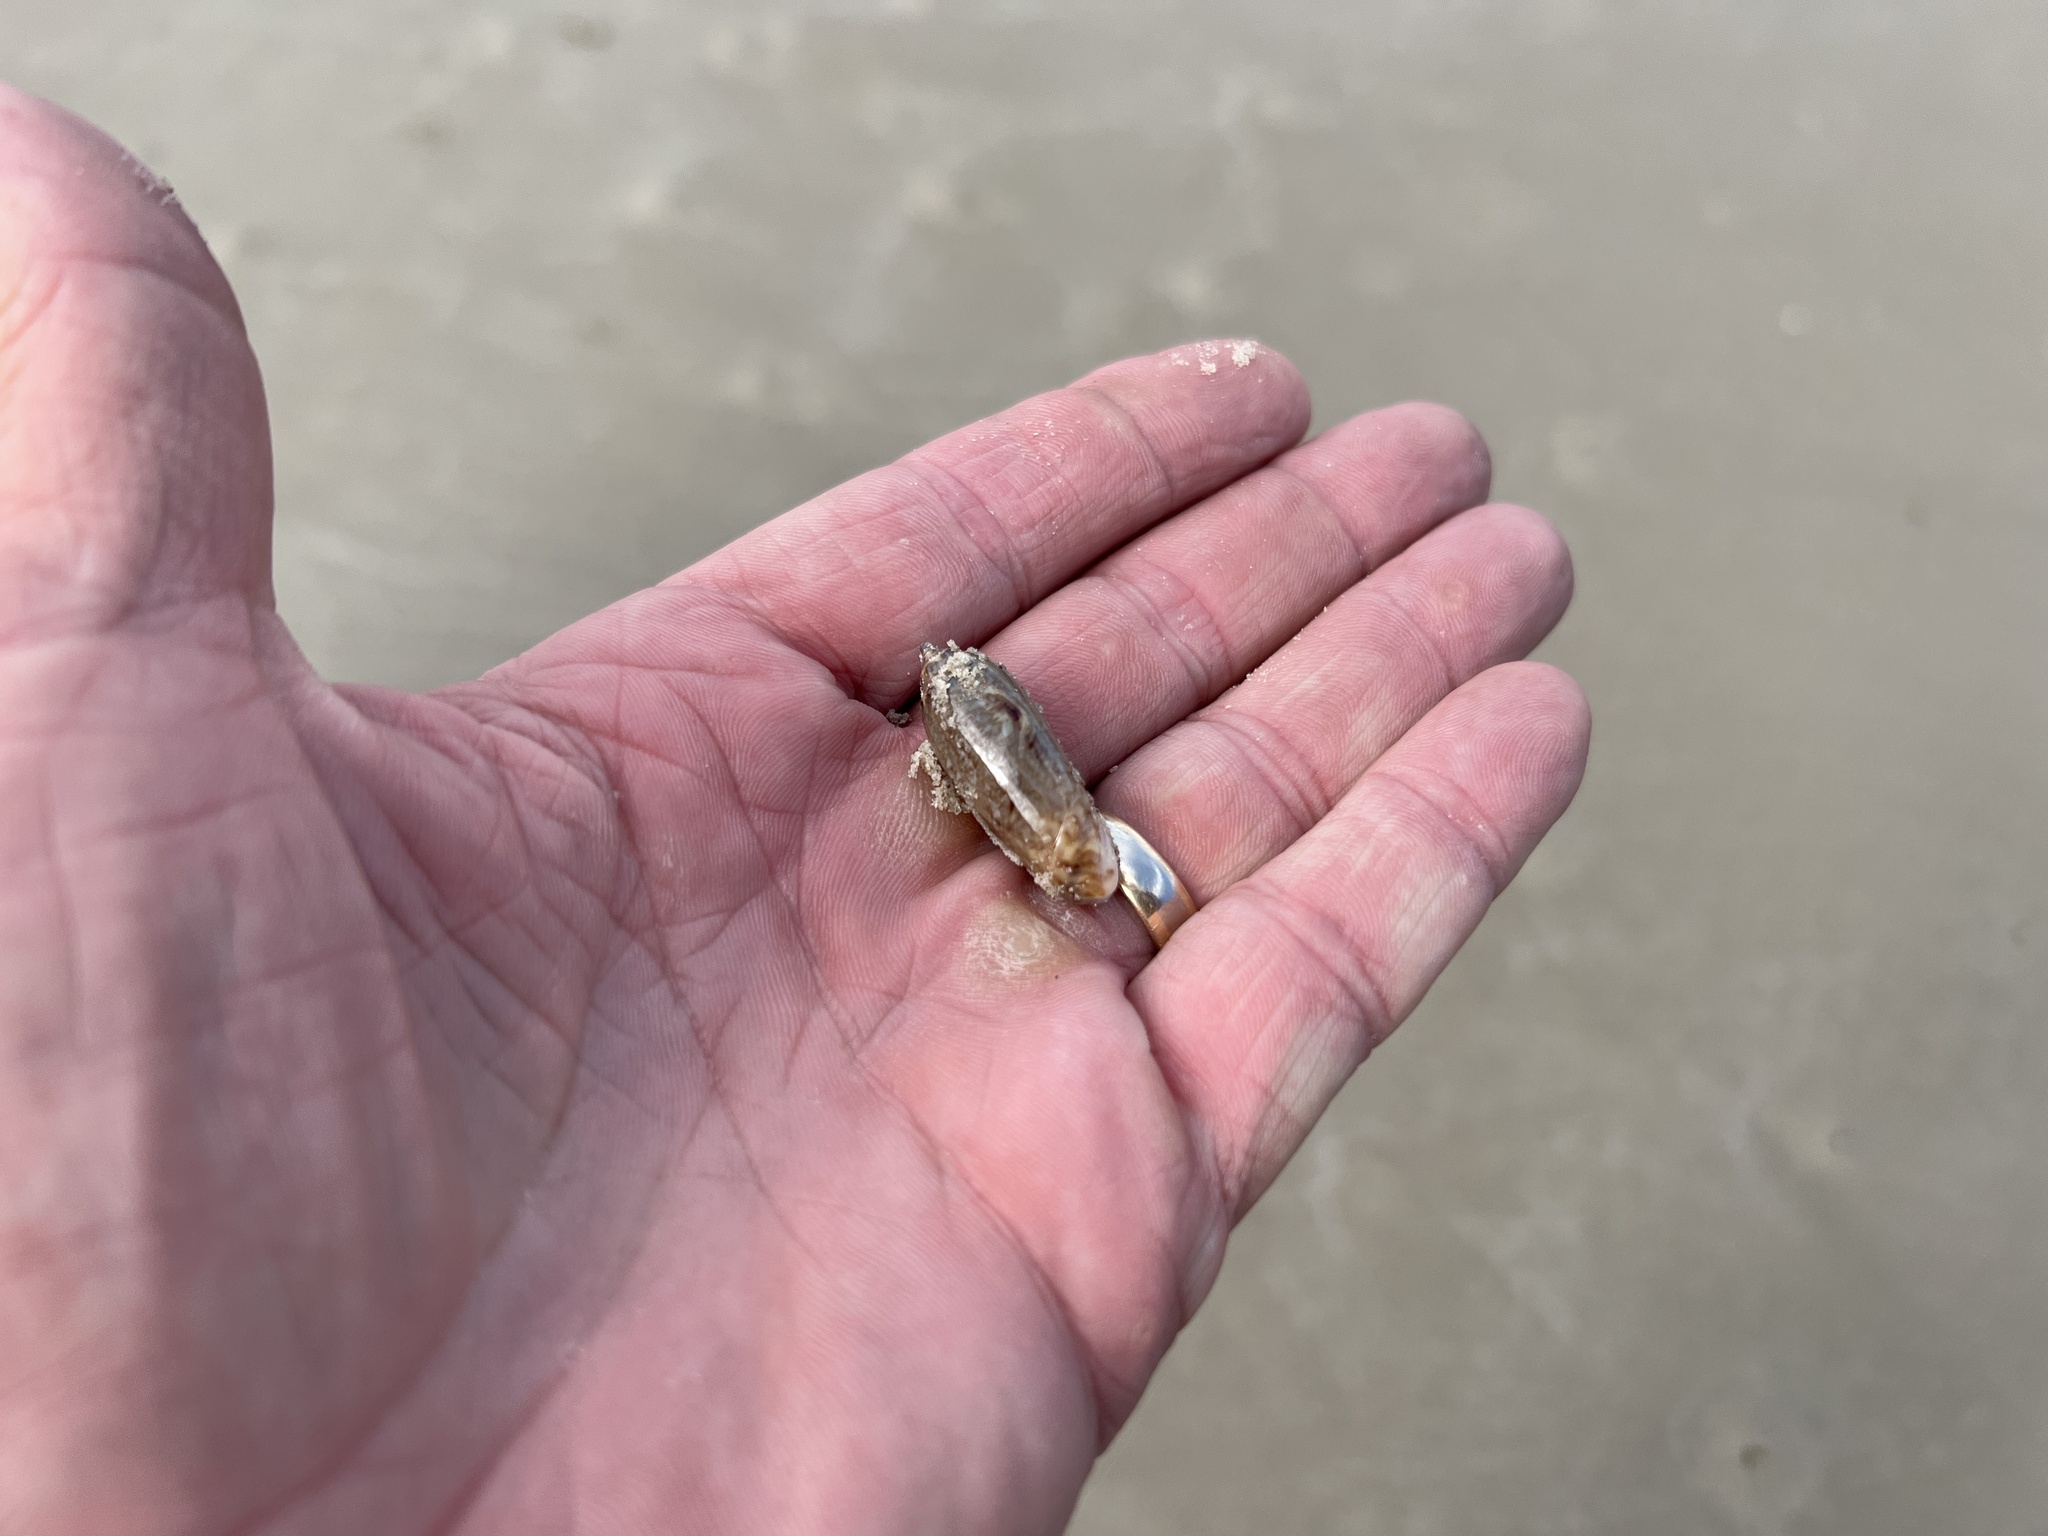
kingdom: Animalia
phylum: Mollusca
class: Gastropoda
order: Neogastropoda
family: Olividae
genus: Oliva
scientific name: Oliva sayana
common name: Lettered olive
